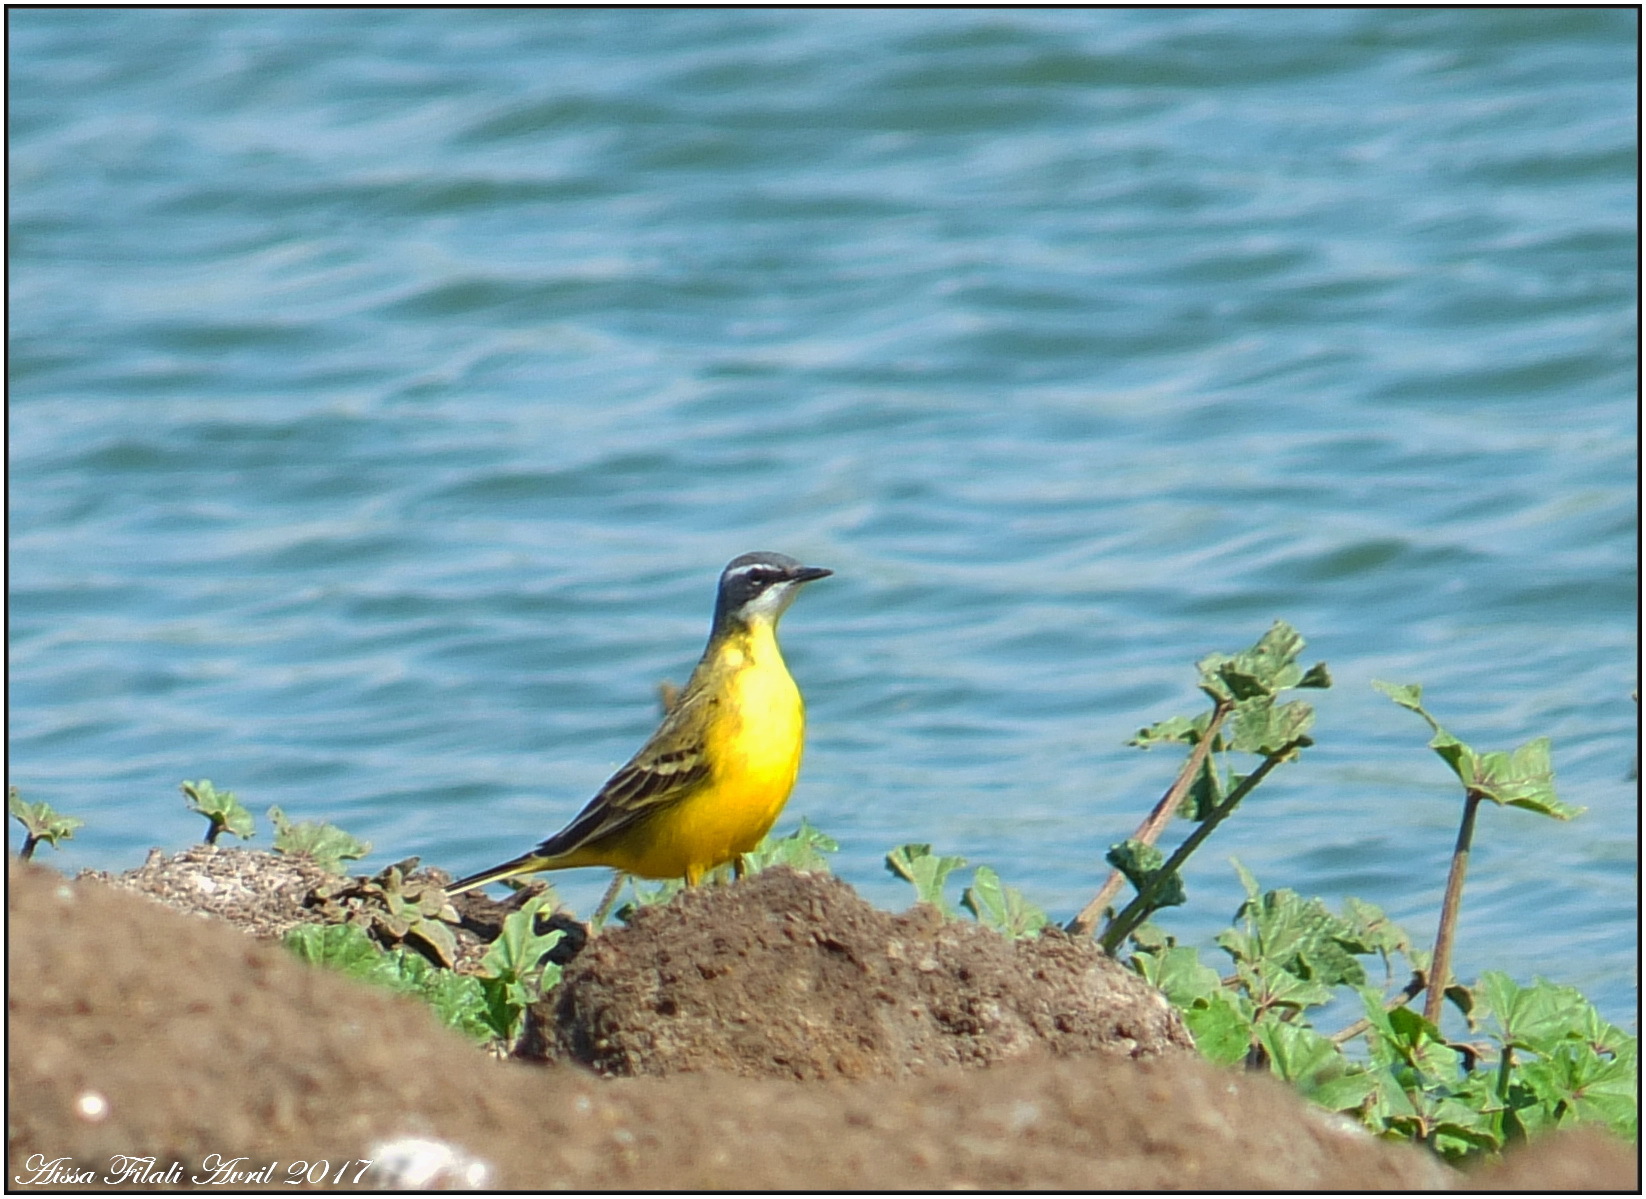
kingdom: Animalia
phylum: Chordata
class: Aves
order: Passeriformes
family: Motacillidae
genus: Motacilla
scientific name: Motacilla flava
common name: Western yellow wagtail
